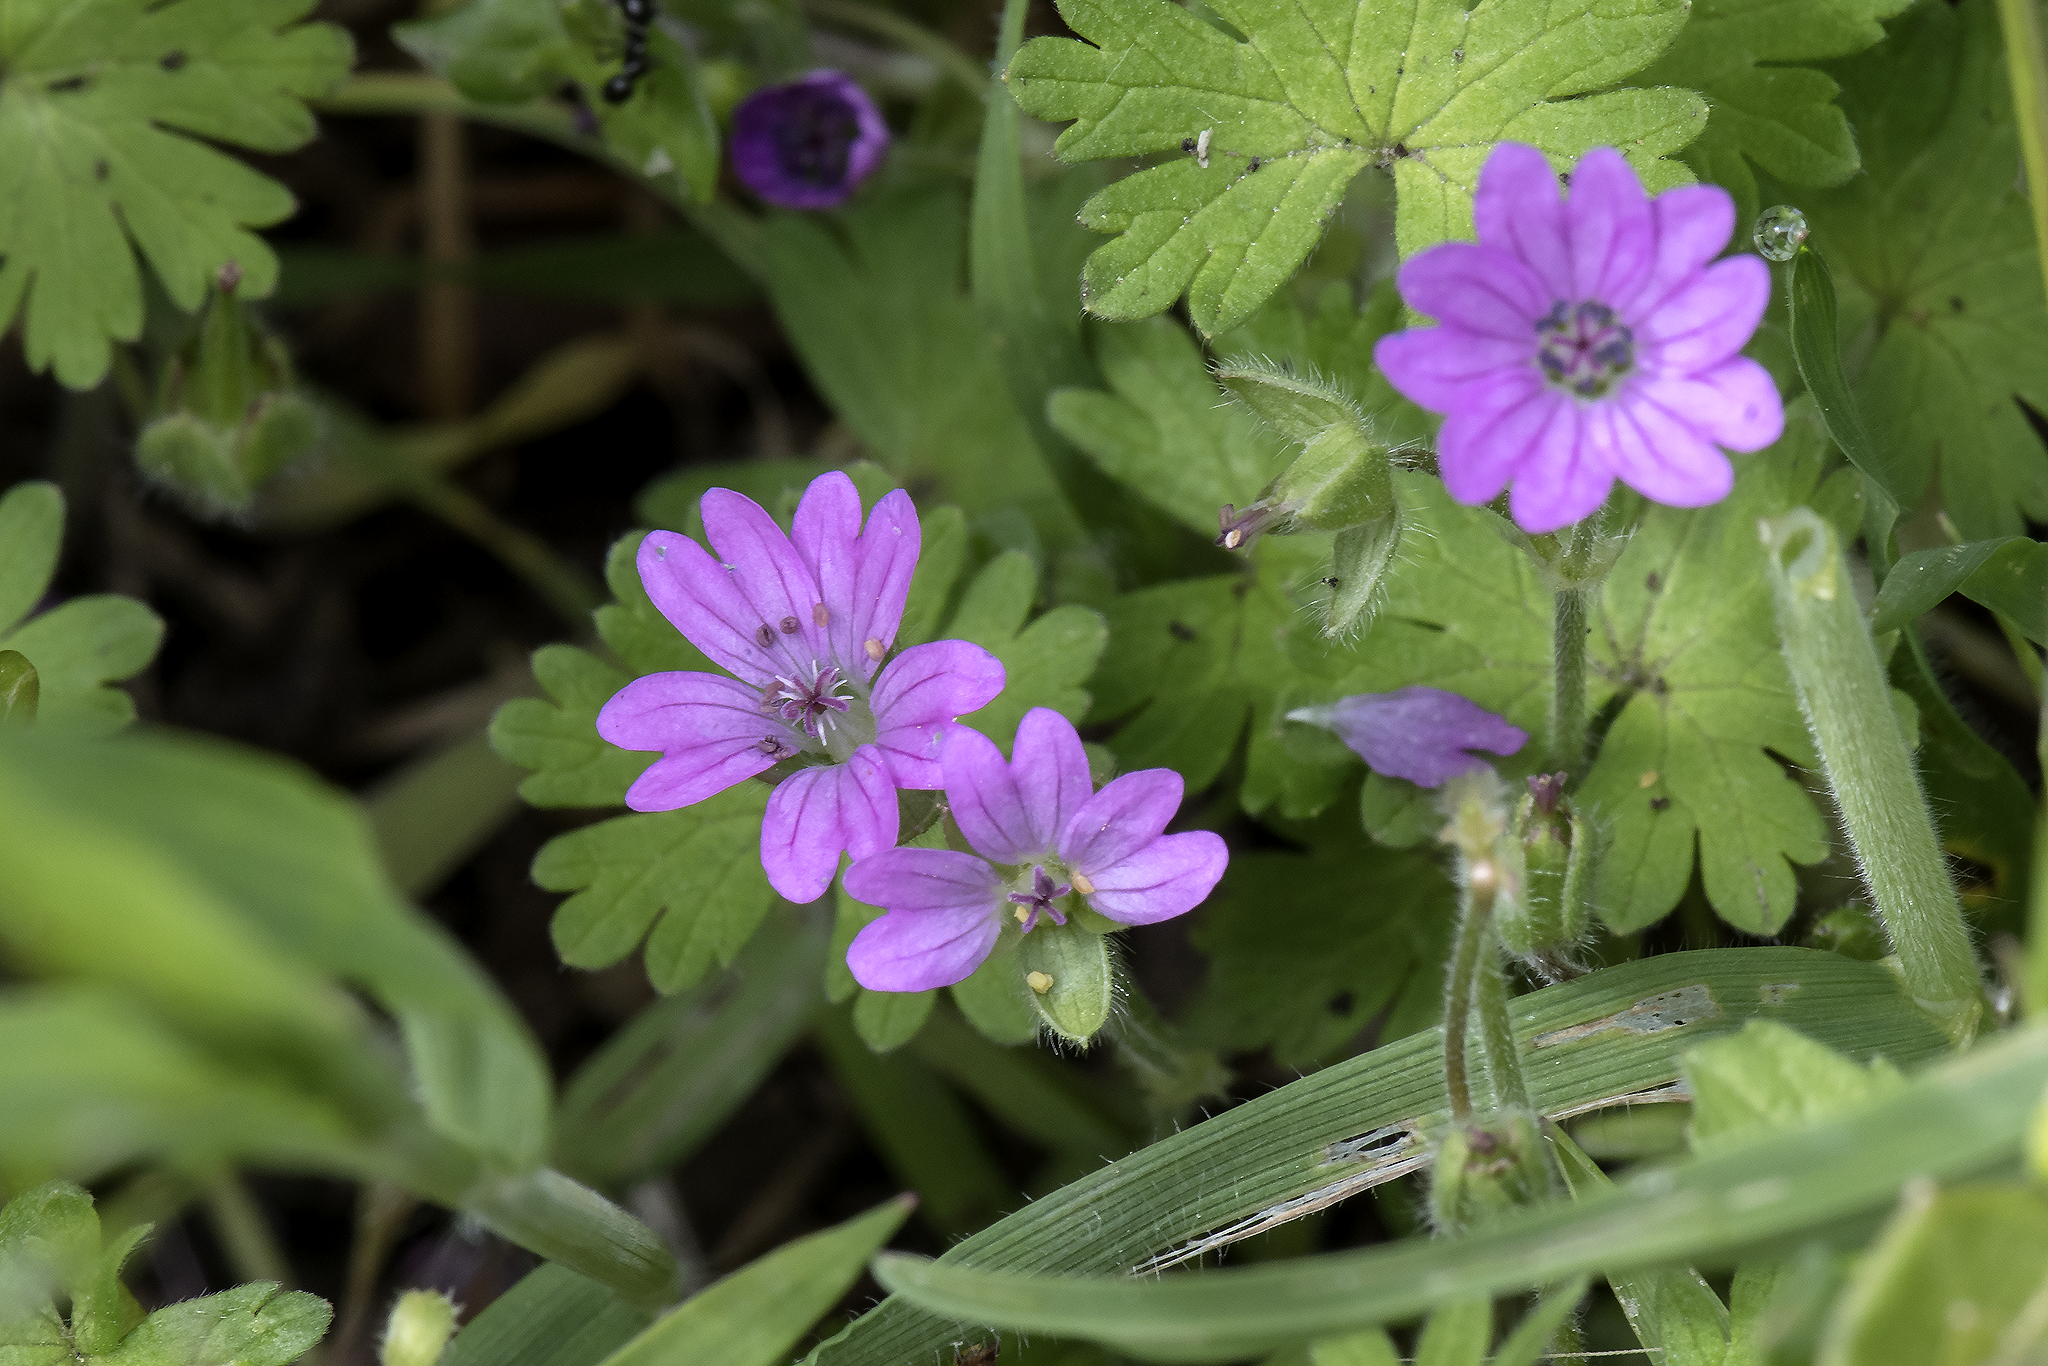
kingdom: Plantae
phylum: Tracheophyta
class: Magnoliopsida
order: Geraniales
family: Geraniaceae
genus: Geranium
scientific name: Geranium molle
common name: Dove's-foot crane's-bill
